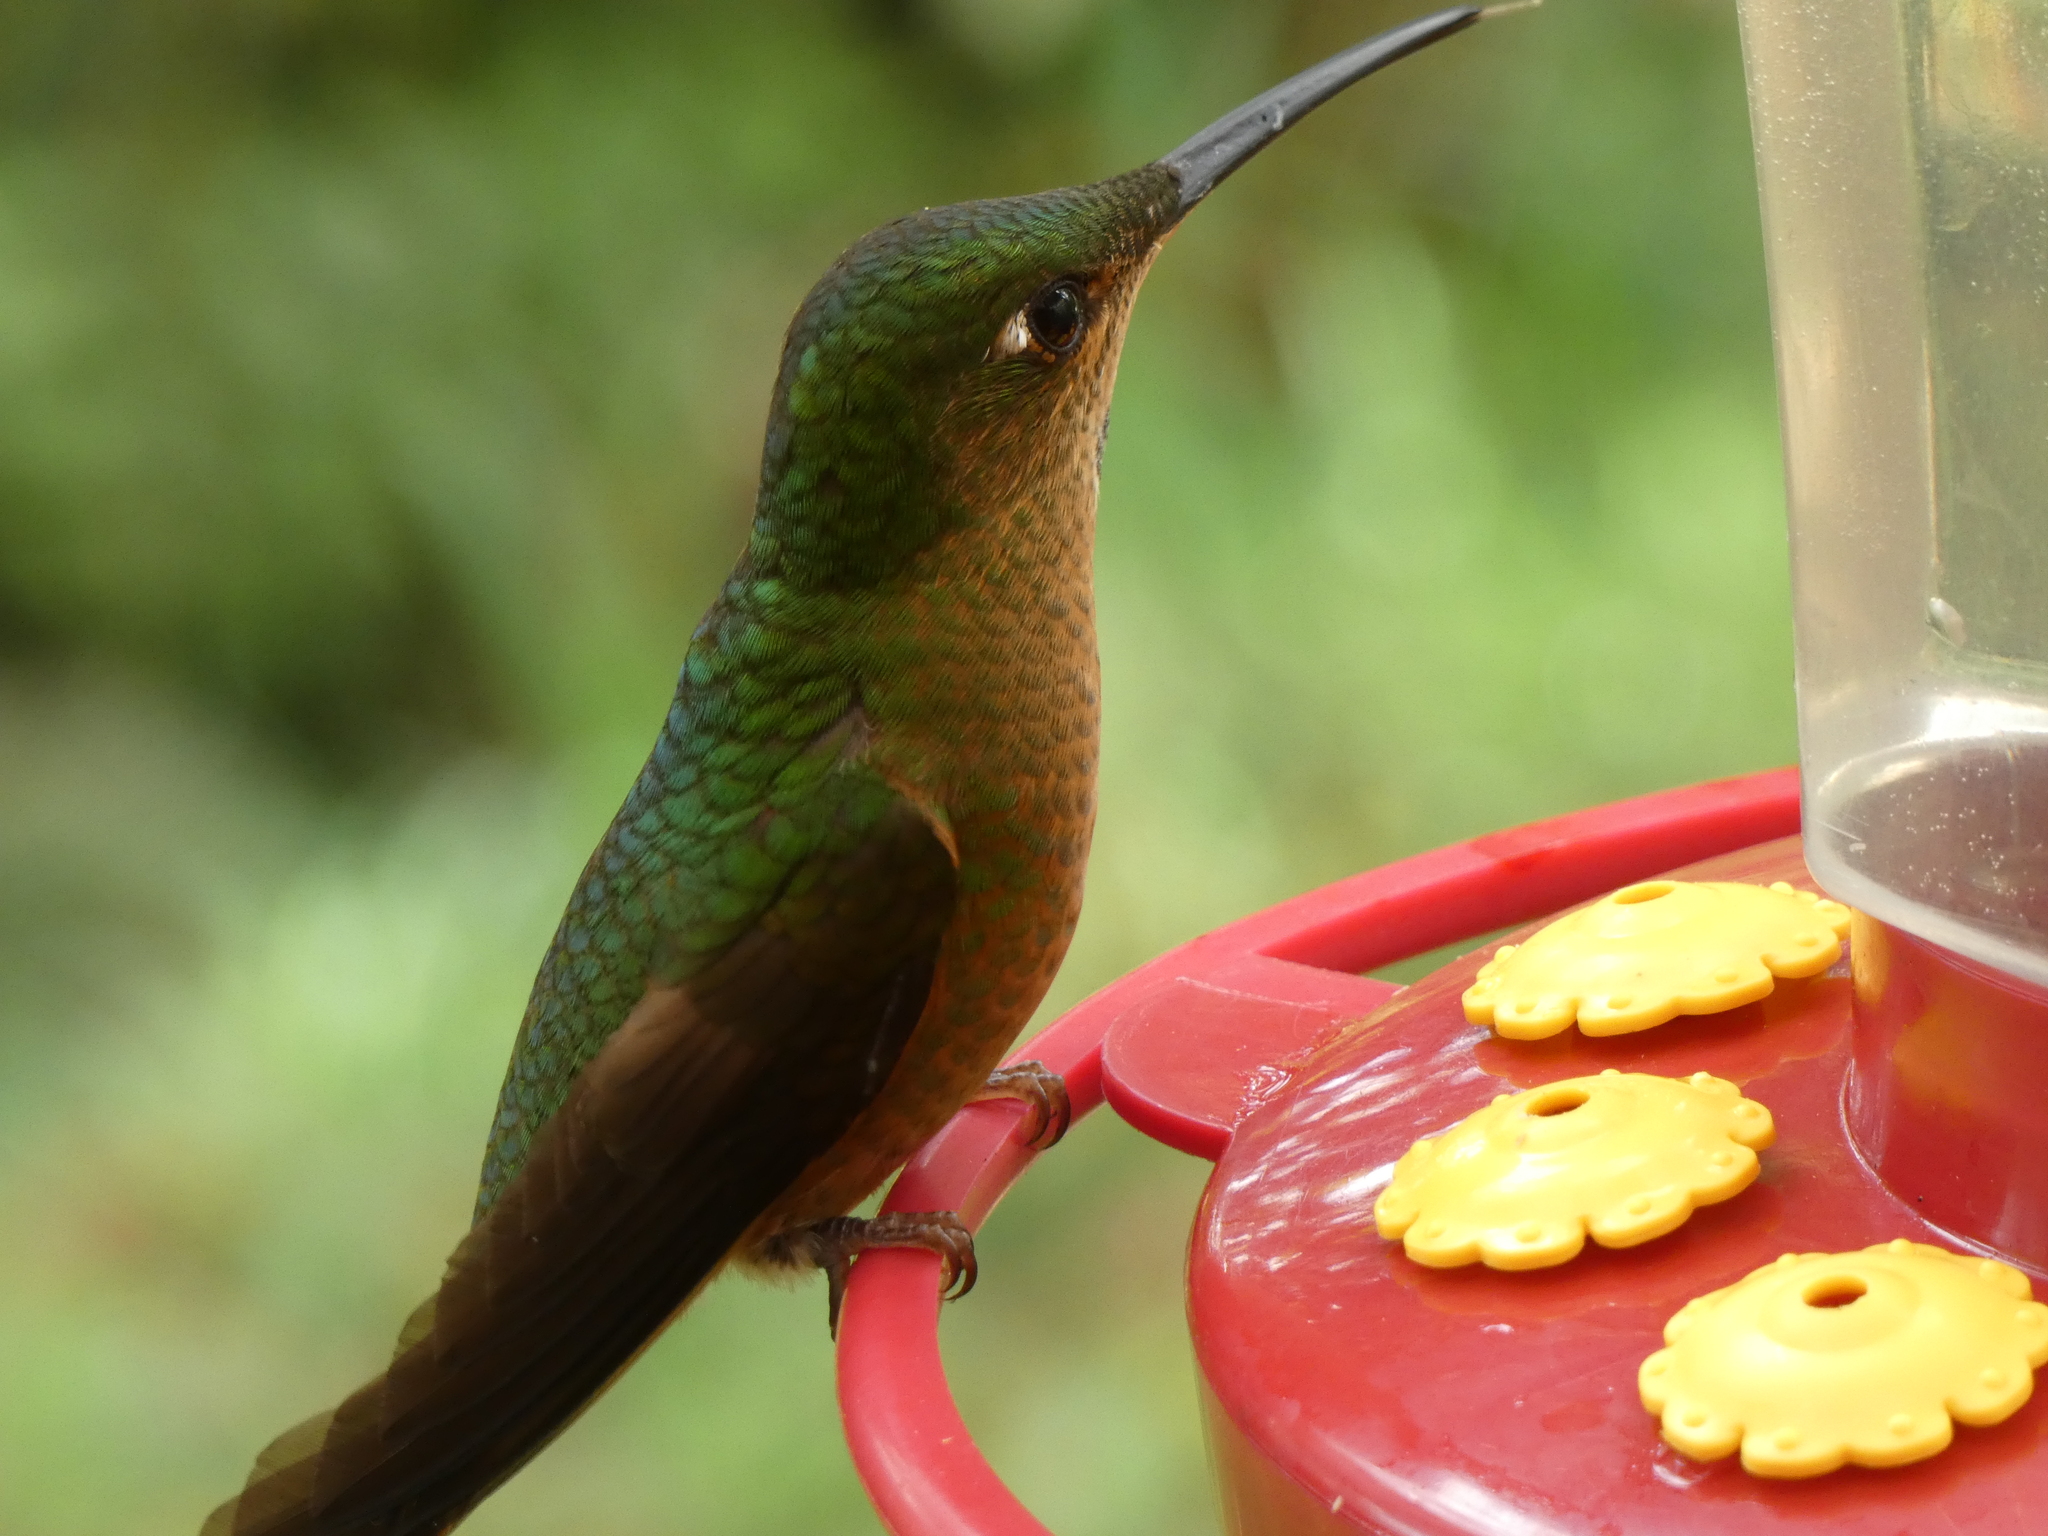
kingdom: Animalia
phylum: Chordata
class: Aves
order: Apodiformes
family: Trochilidae
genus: Heliodoxa
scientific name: Heliodoxa rubinoides
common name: Fawn-breasted brilliant
